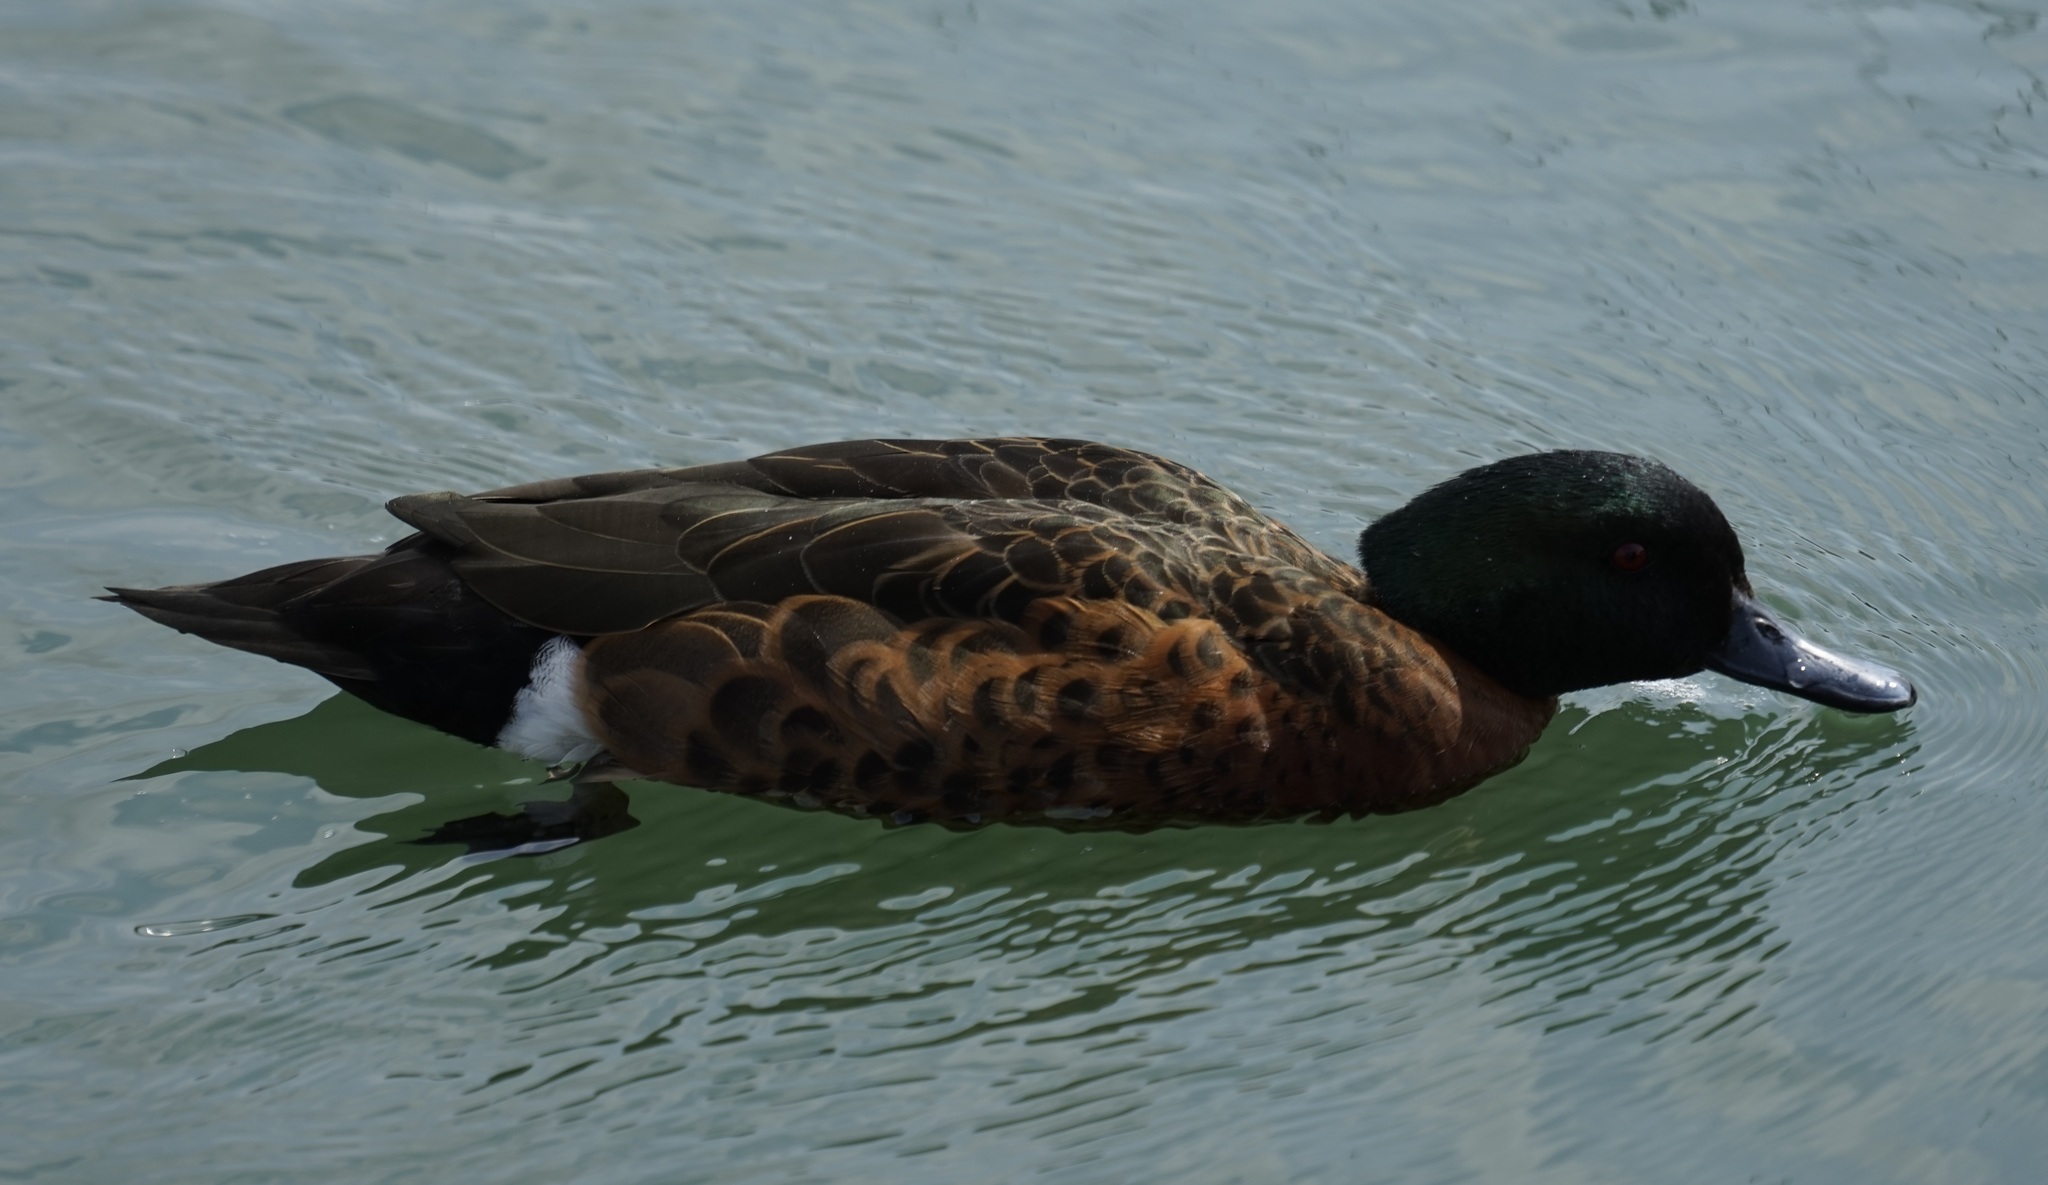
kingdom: Animalia
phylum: Chordata
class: Aves
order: Anseriformes
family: Anatidae
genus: Anas
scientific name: Anas castanea
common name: Chestnut teal
